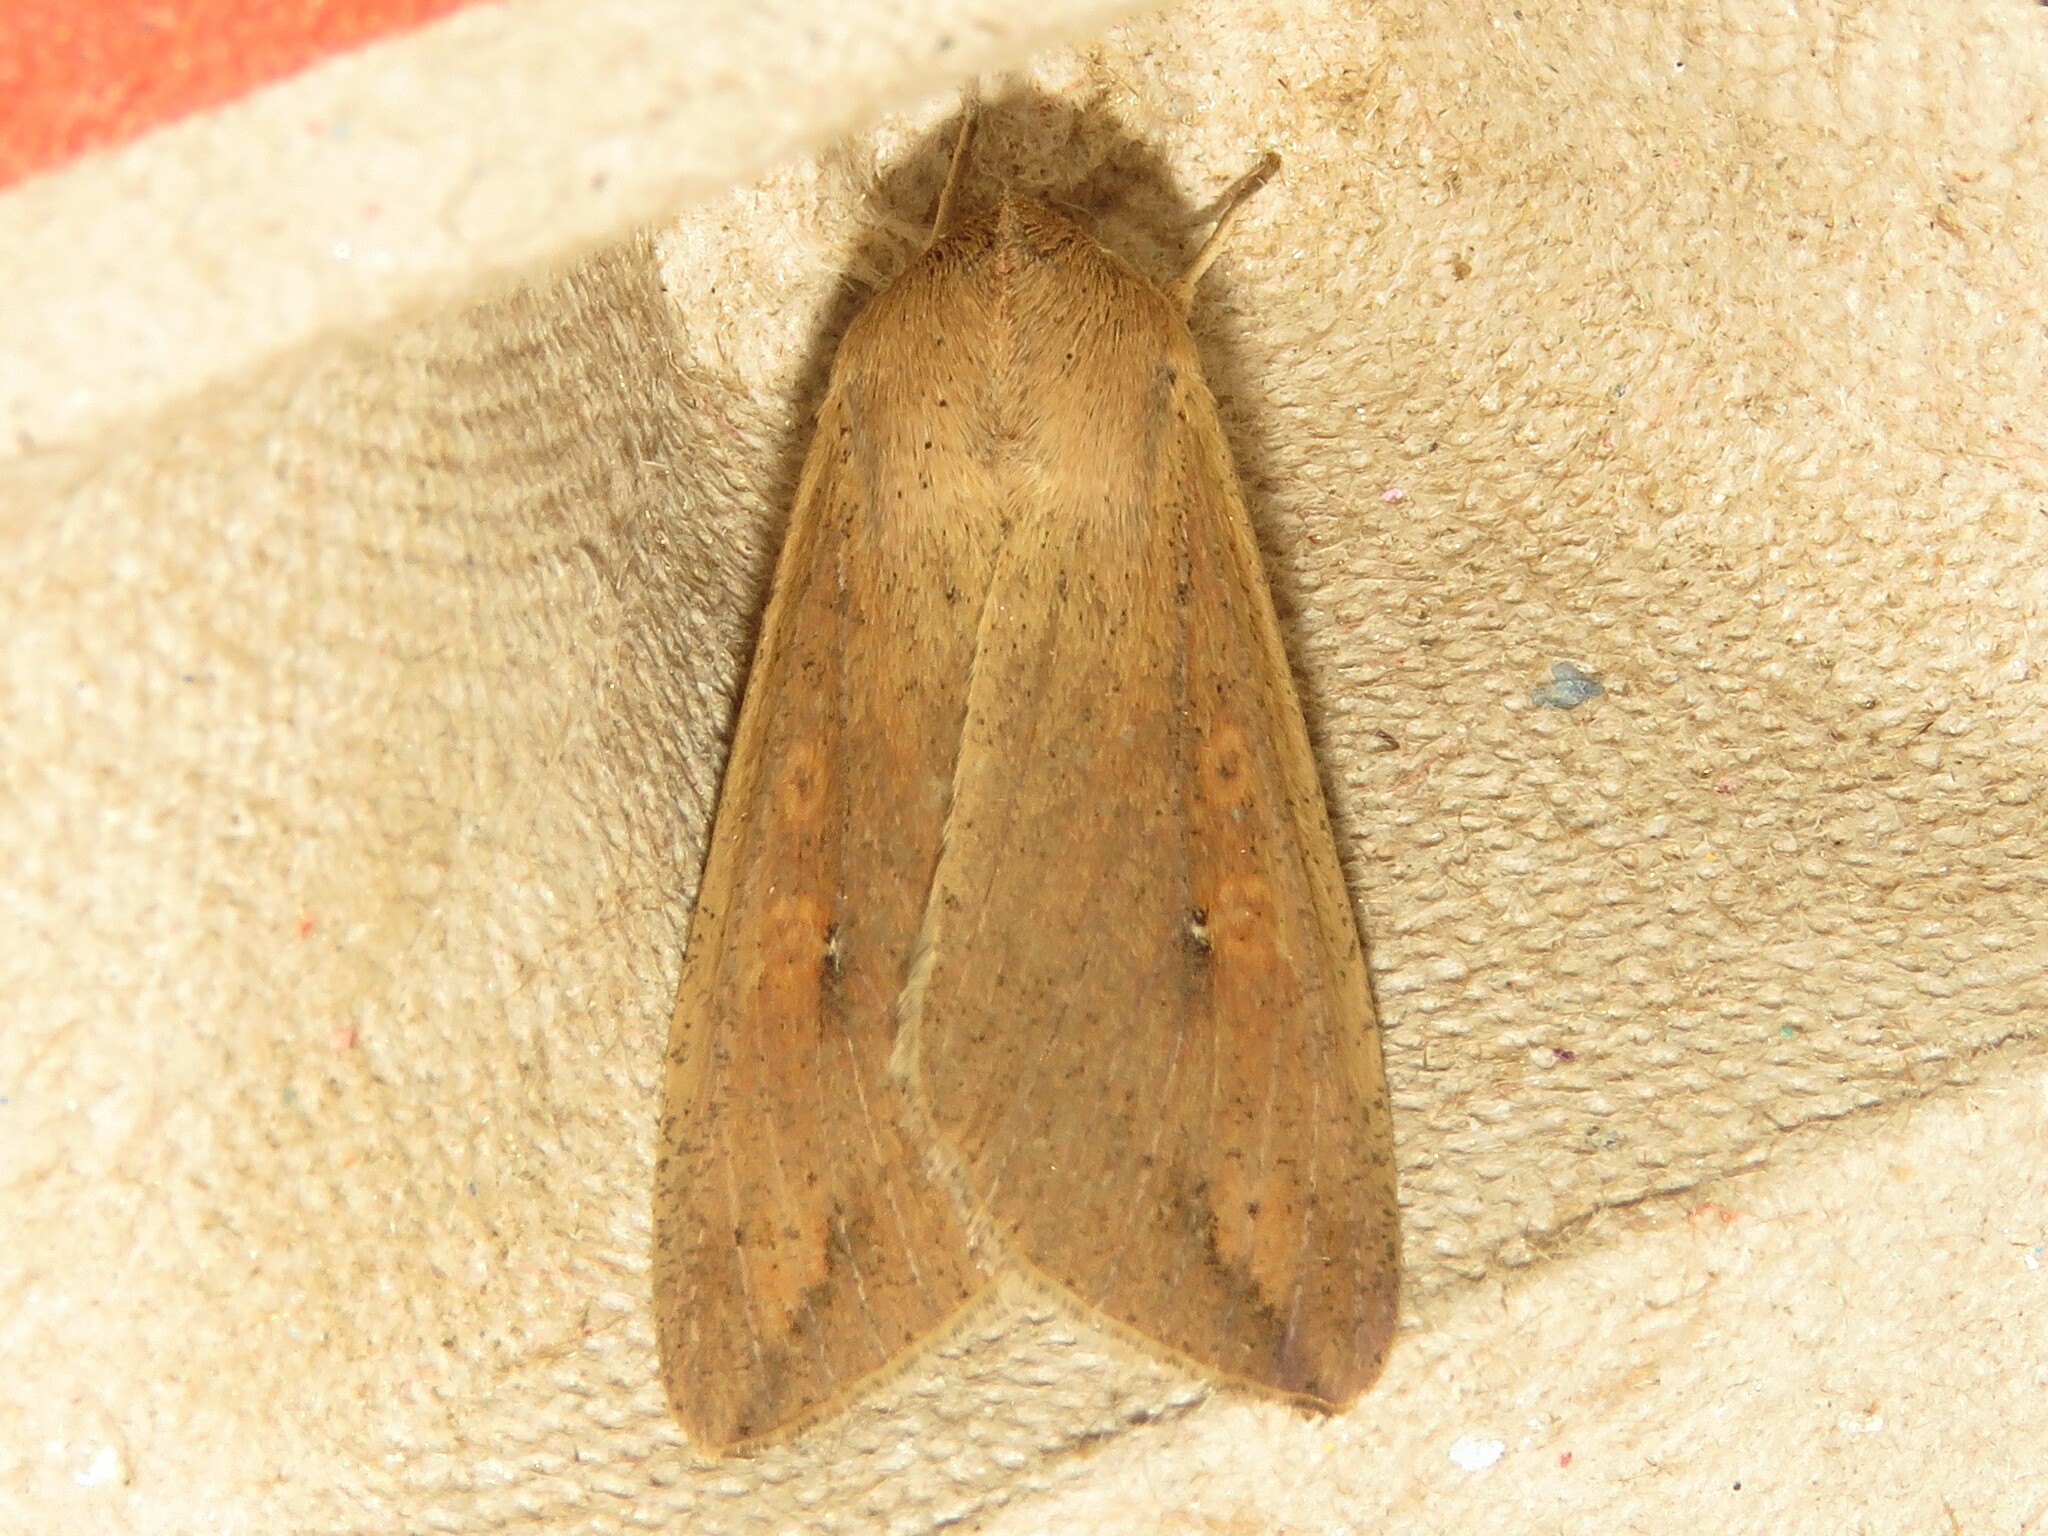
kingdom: Animalia
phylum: Arthropoda
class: Insecta
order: Lepidoptera
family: Noctuidae
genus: Mythimna
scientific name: Mythimna unipuncta
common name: White-speck
